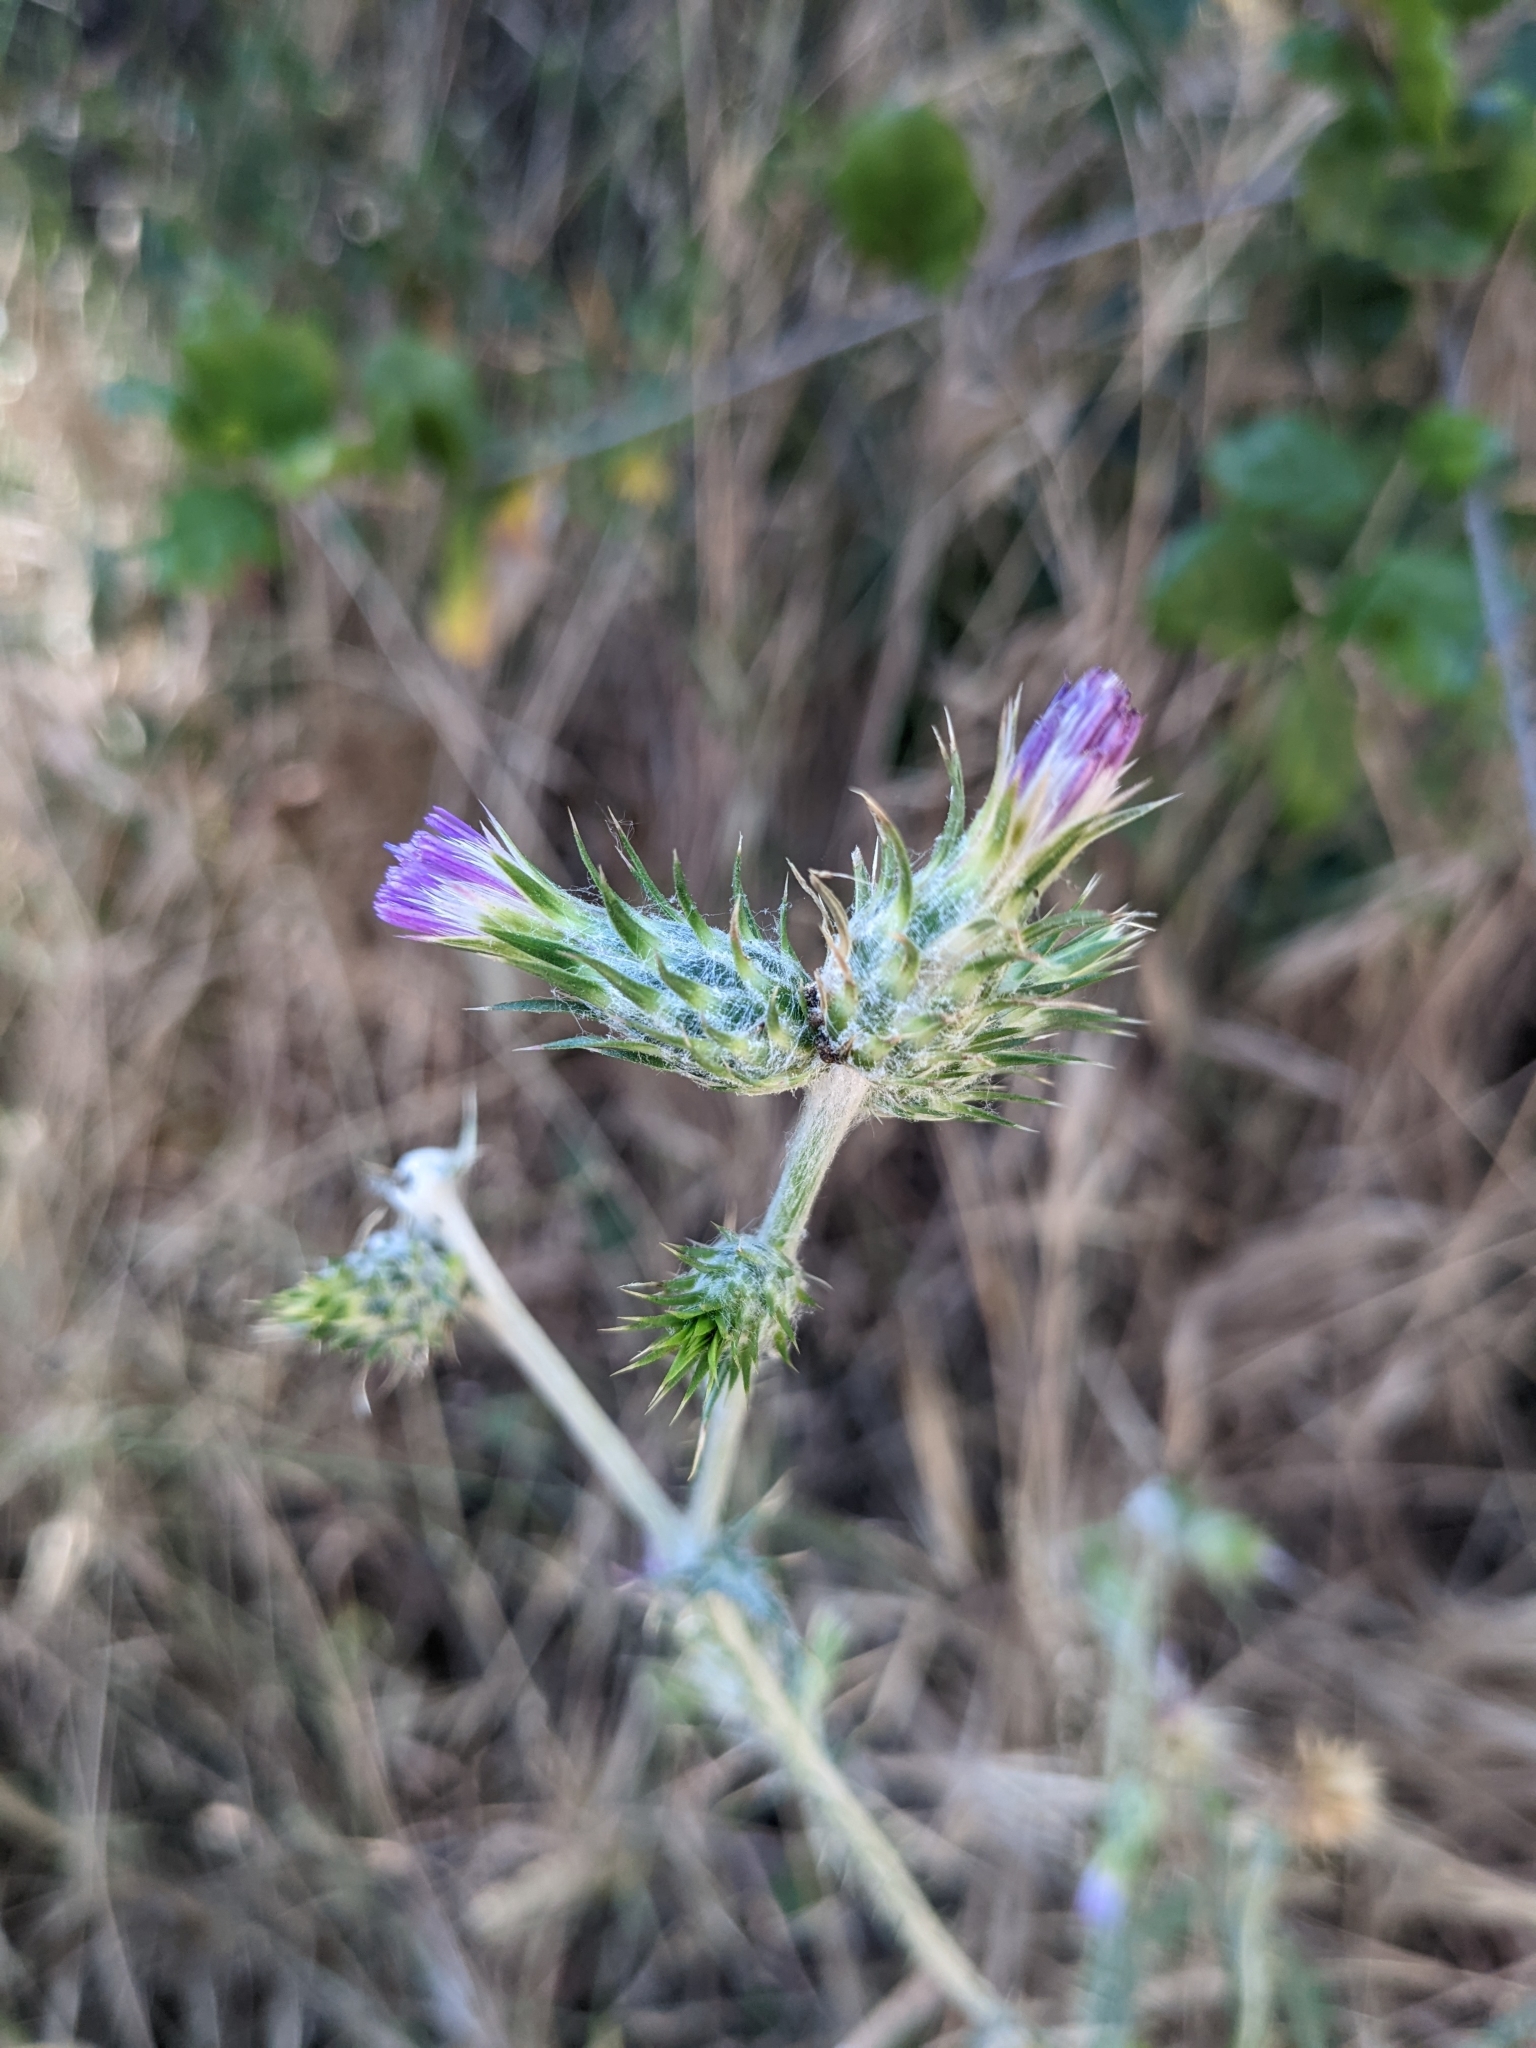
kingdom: Plantae
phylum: Tracheophyta
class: Magnoliopsida
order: Asterales
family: Asteraceae
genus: Carduus
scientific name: Carduus pycnocephalus
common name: Plymouth thistle
